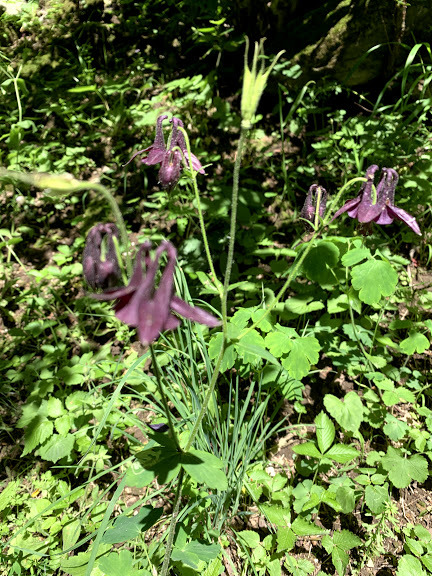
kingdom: Plantae
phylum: Tracheophyta
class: Magnoliopsida
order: Ranunculales
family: Ranunculaceae
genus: Aquilegia
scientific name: Aquilegia atrata
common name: Dark columbine
